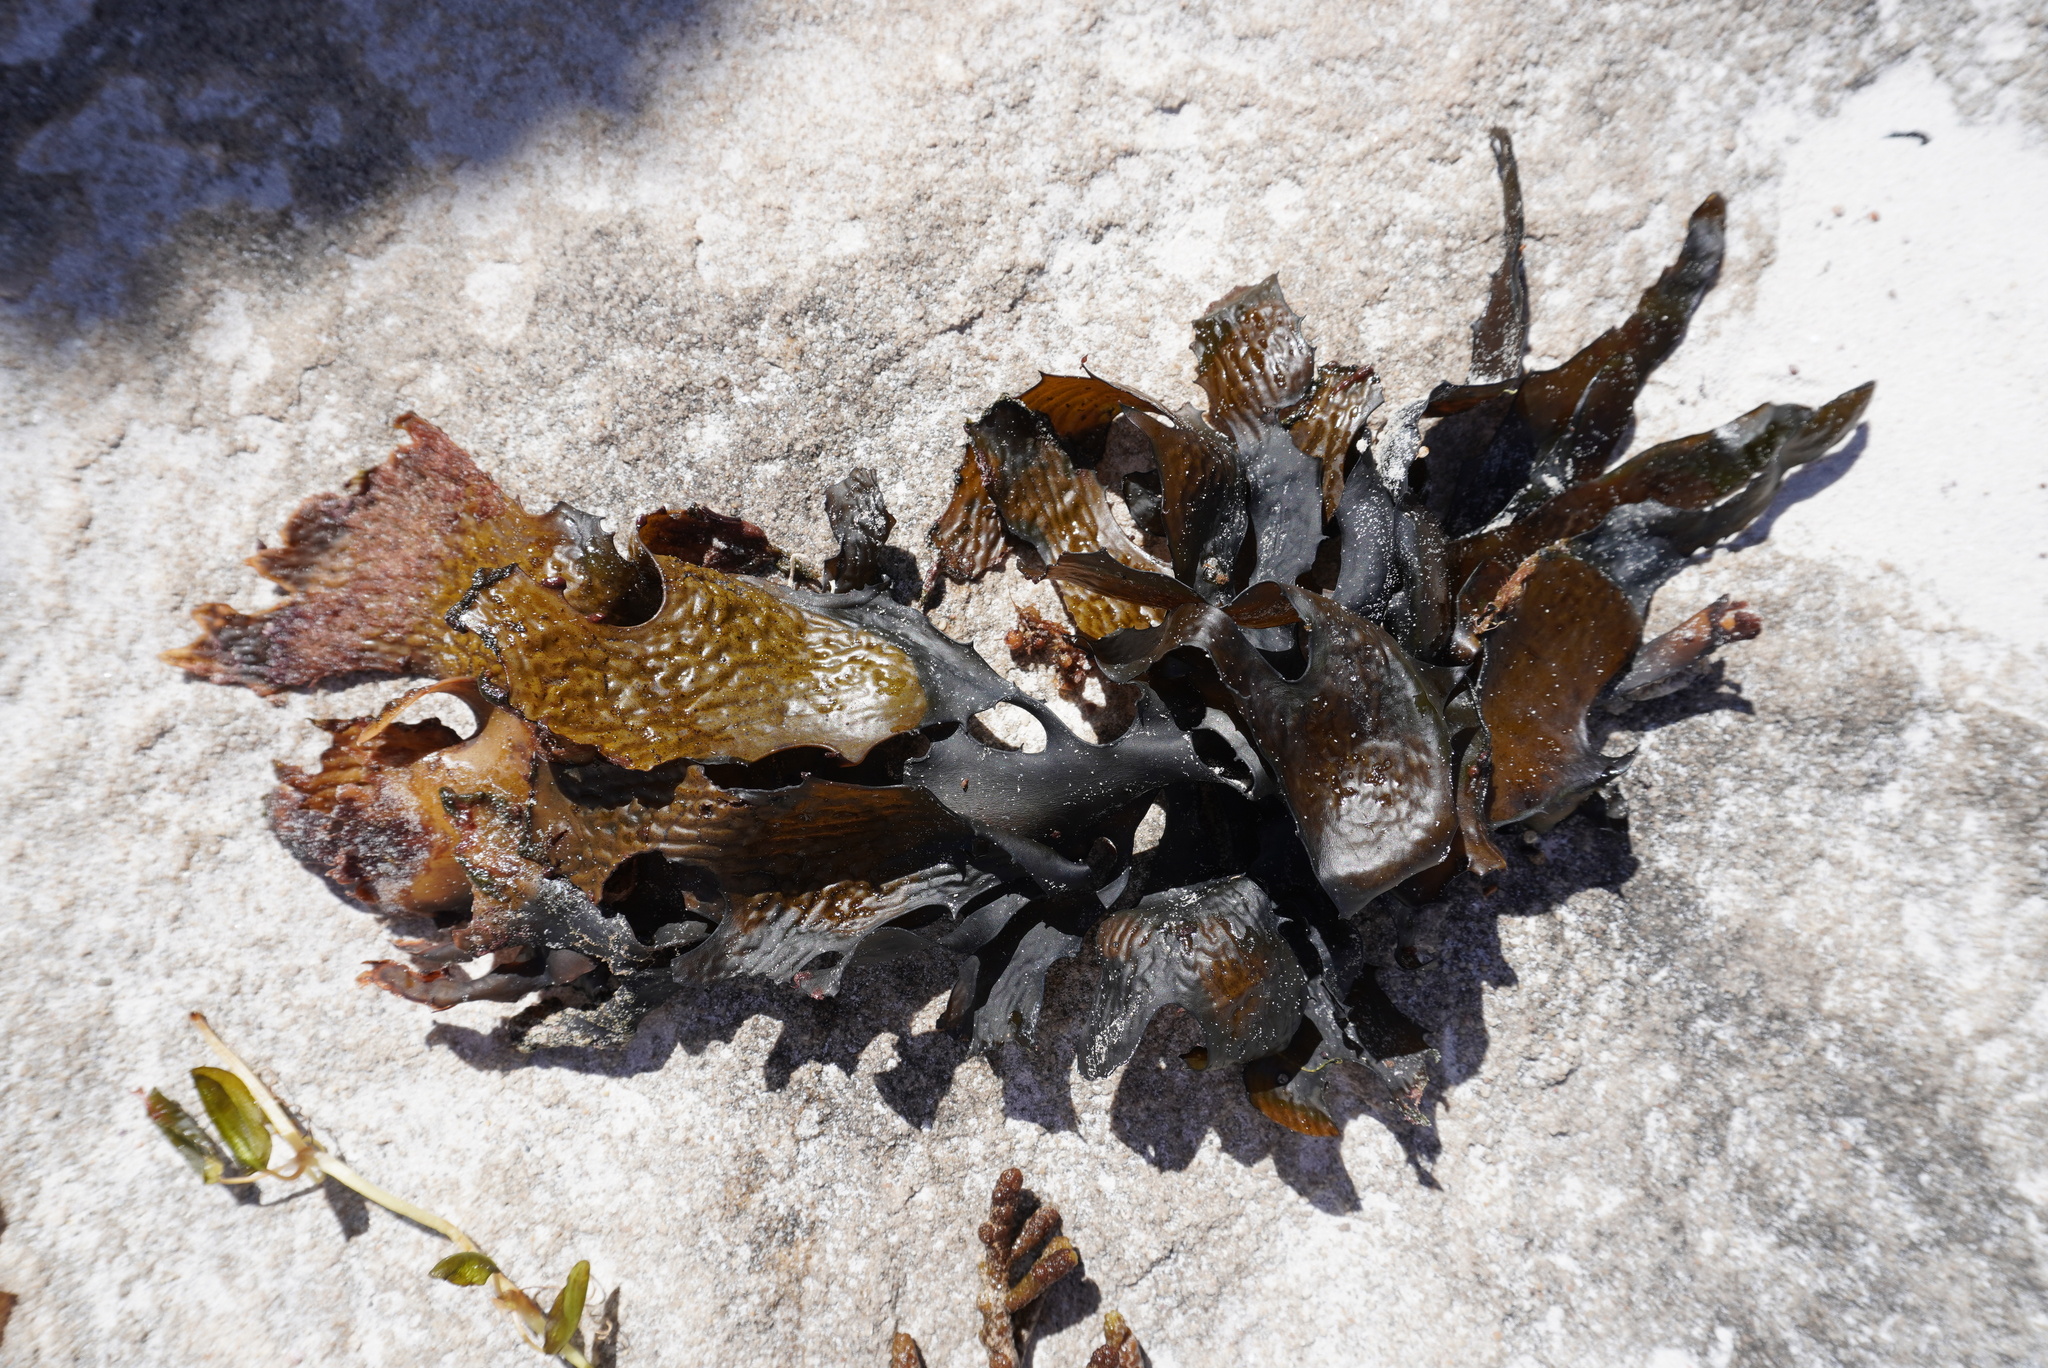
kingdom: Chromista
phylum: Ochrophyta
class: Phaeophyceae
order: Laminariales
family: Lessoniaceae
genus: Ecklonia
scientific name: Ecklonia radiata
